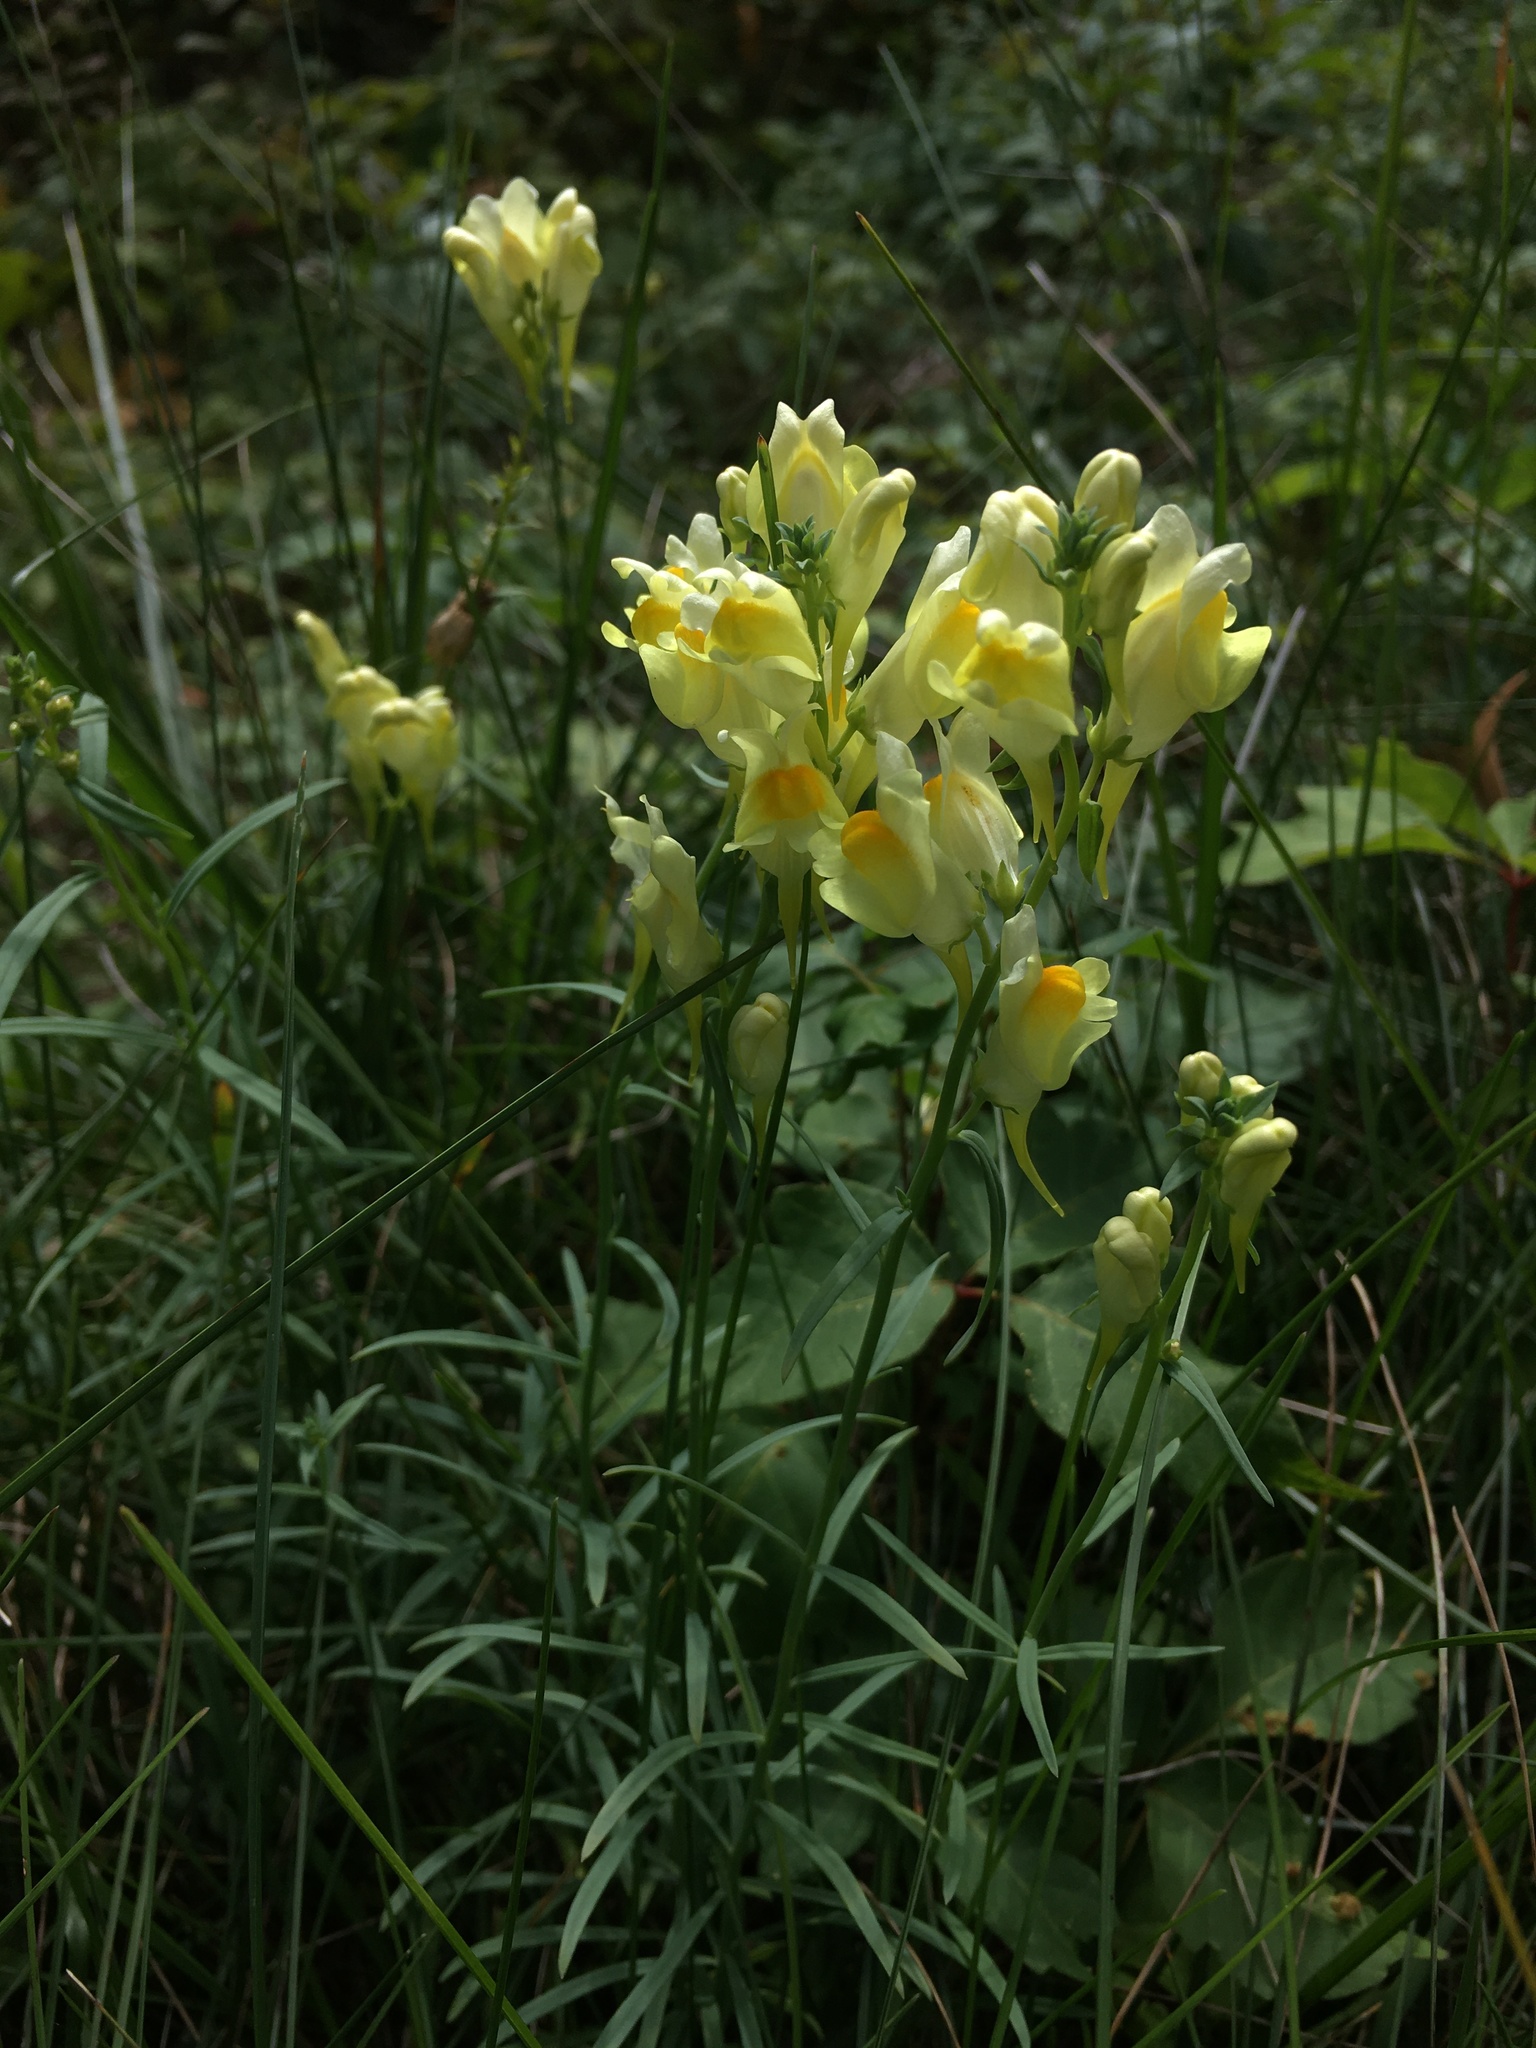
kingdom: Plantae
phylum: Tracheophyta
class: Magnoliopsida
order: Lamiales
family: Plantaginaceae
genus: Linaria
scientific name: Linaria vulgaris
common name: Butter and eggs
